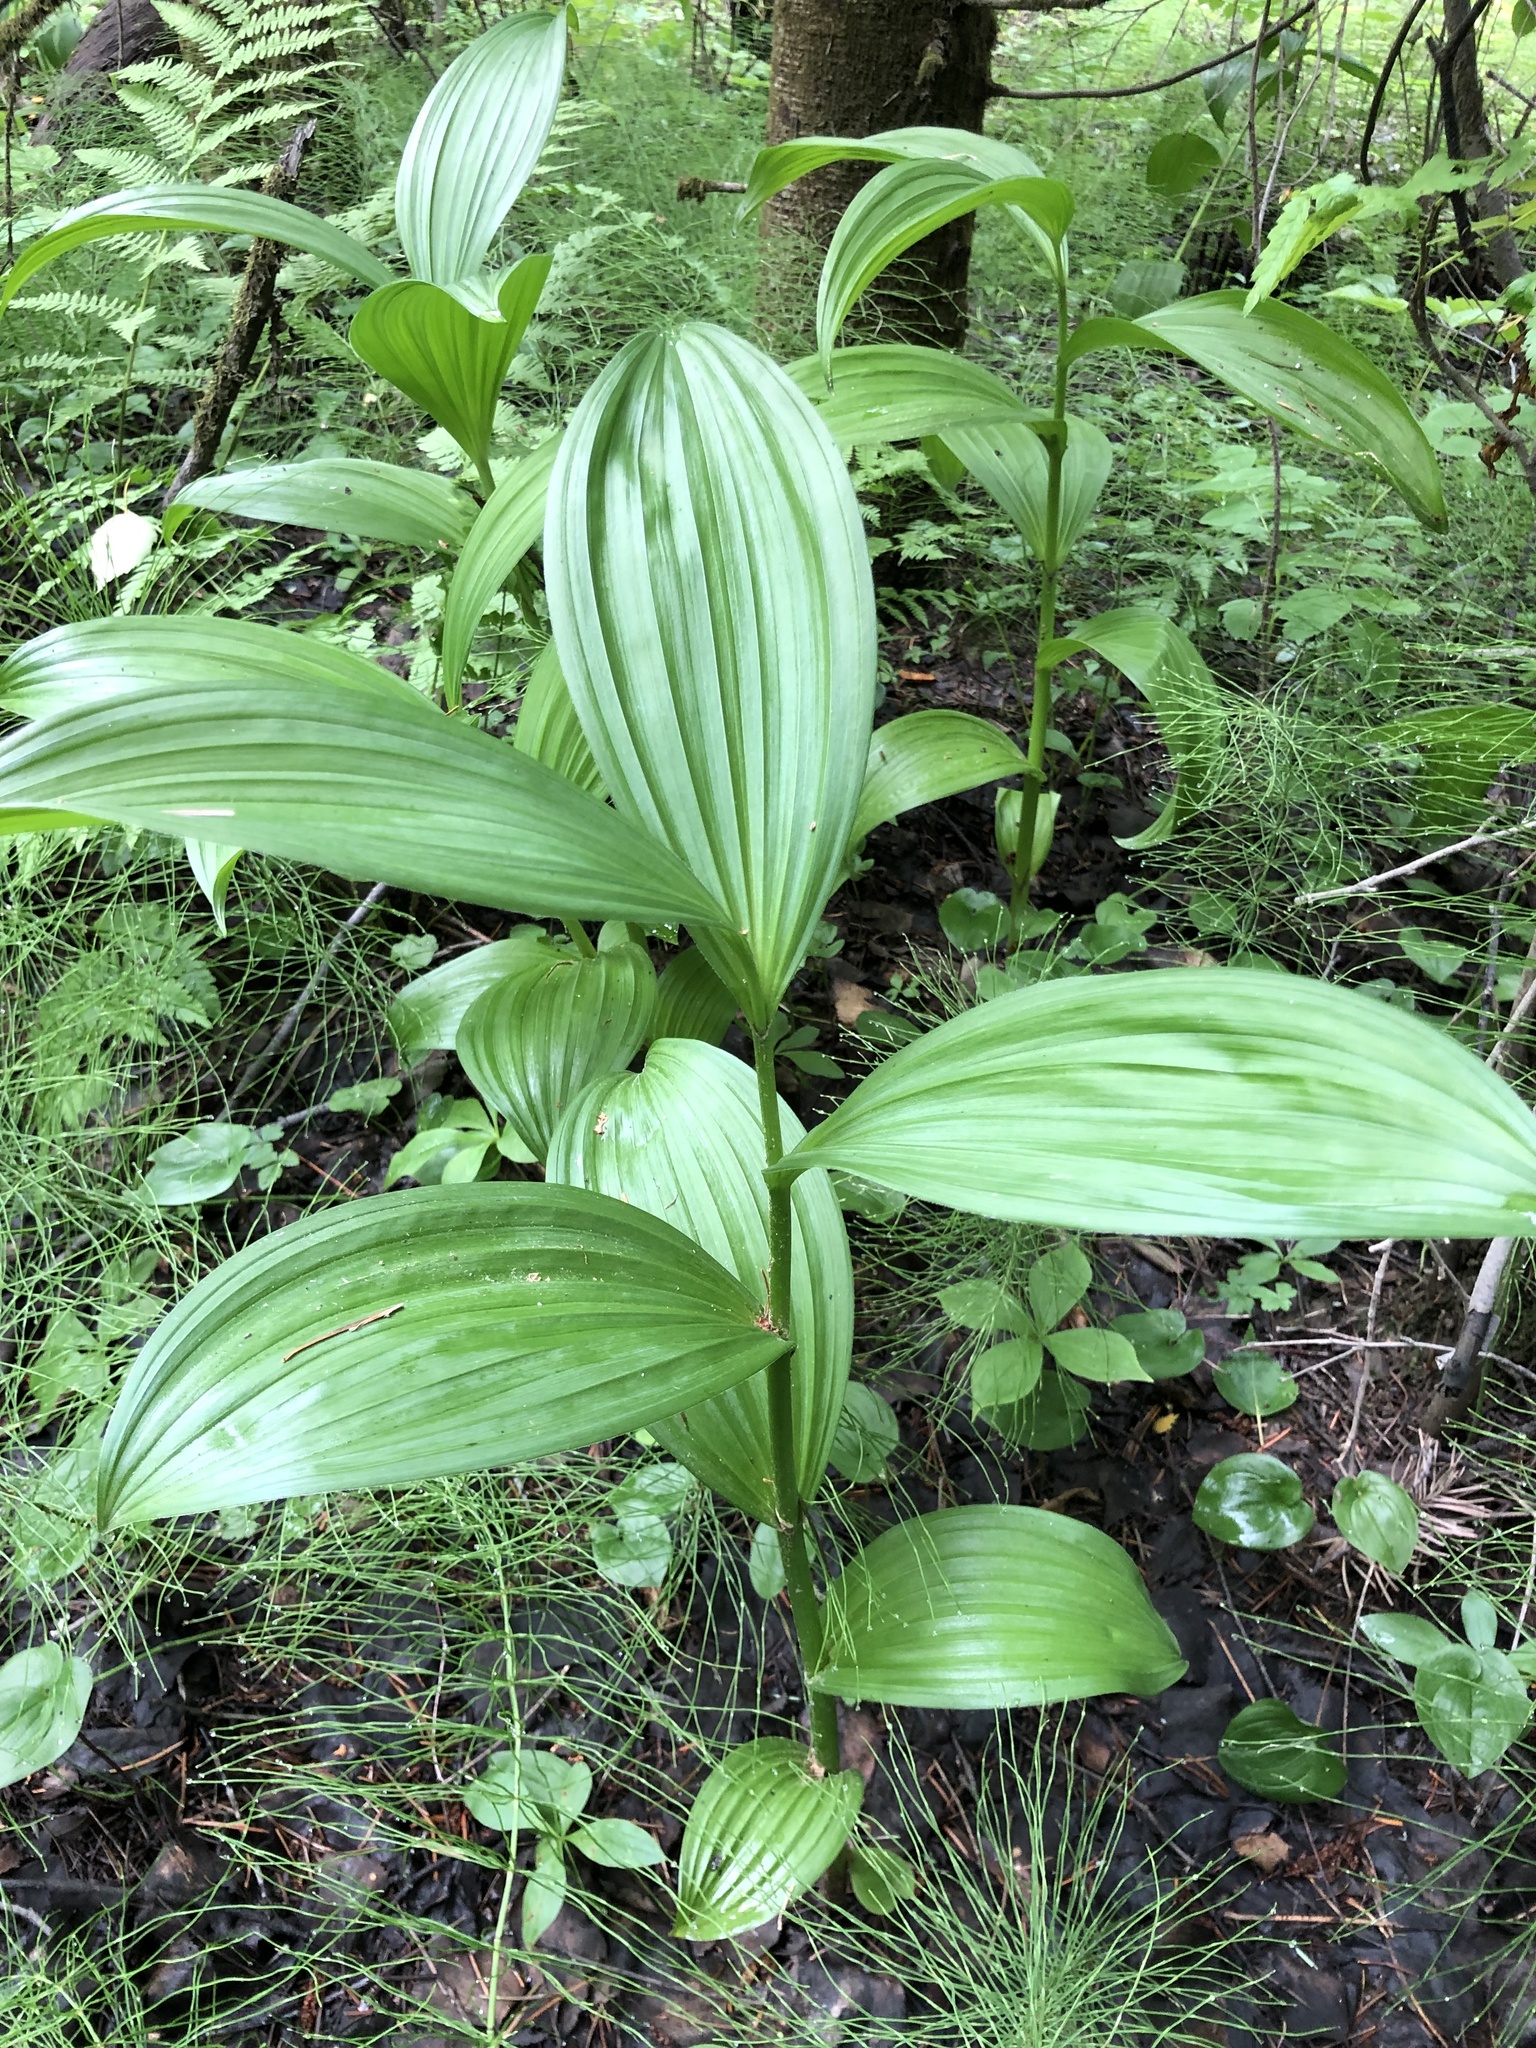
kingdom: Plantae
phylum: Tracheophyta
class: Liliopsida
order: Liliales
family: Melanthiaceae
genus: Veratrum
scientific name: Veratrum lobelianum
